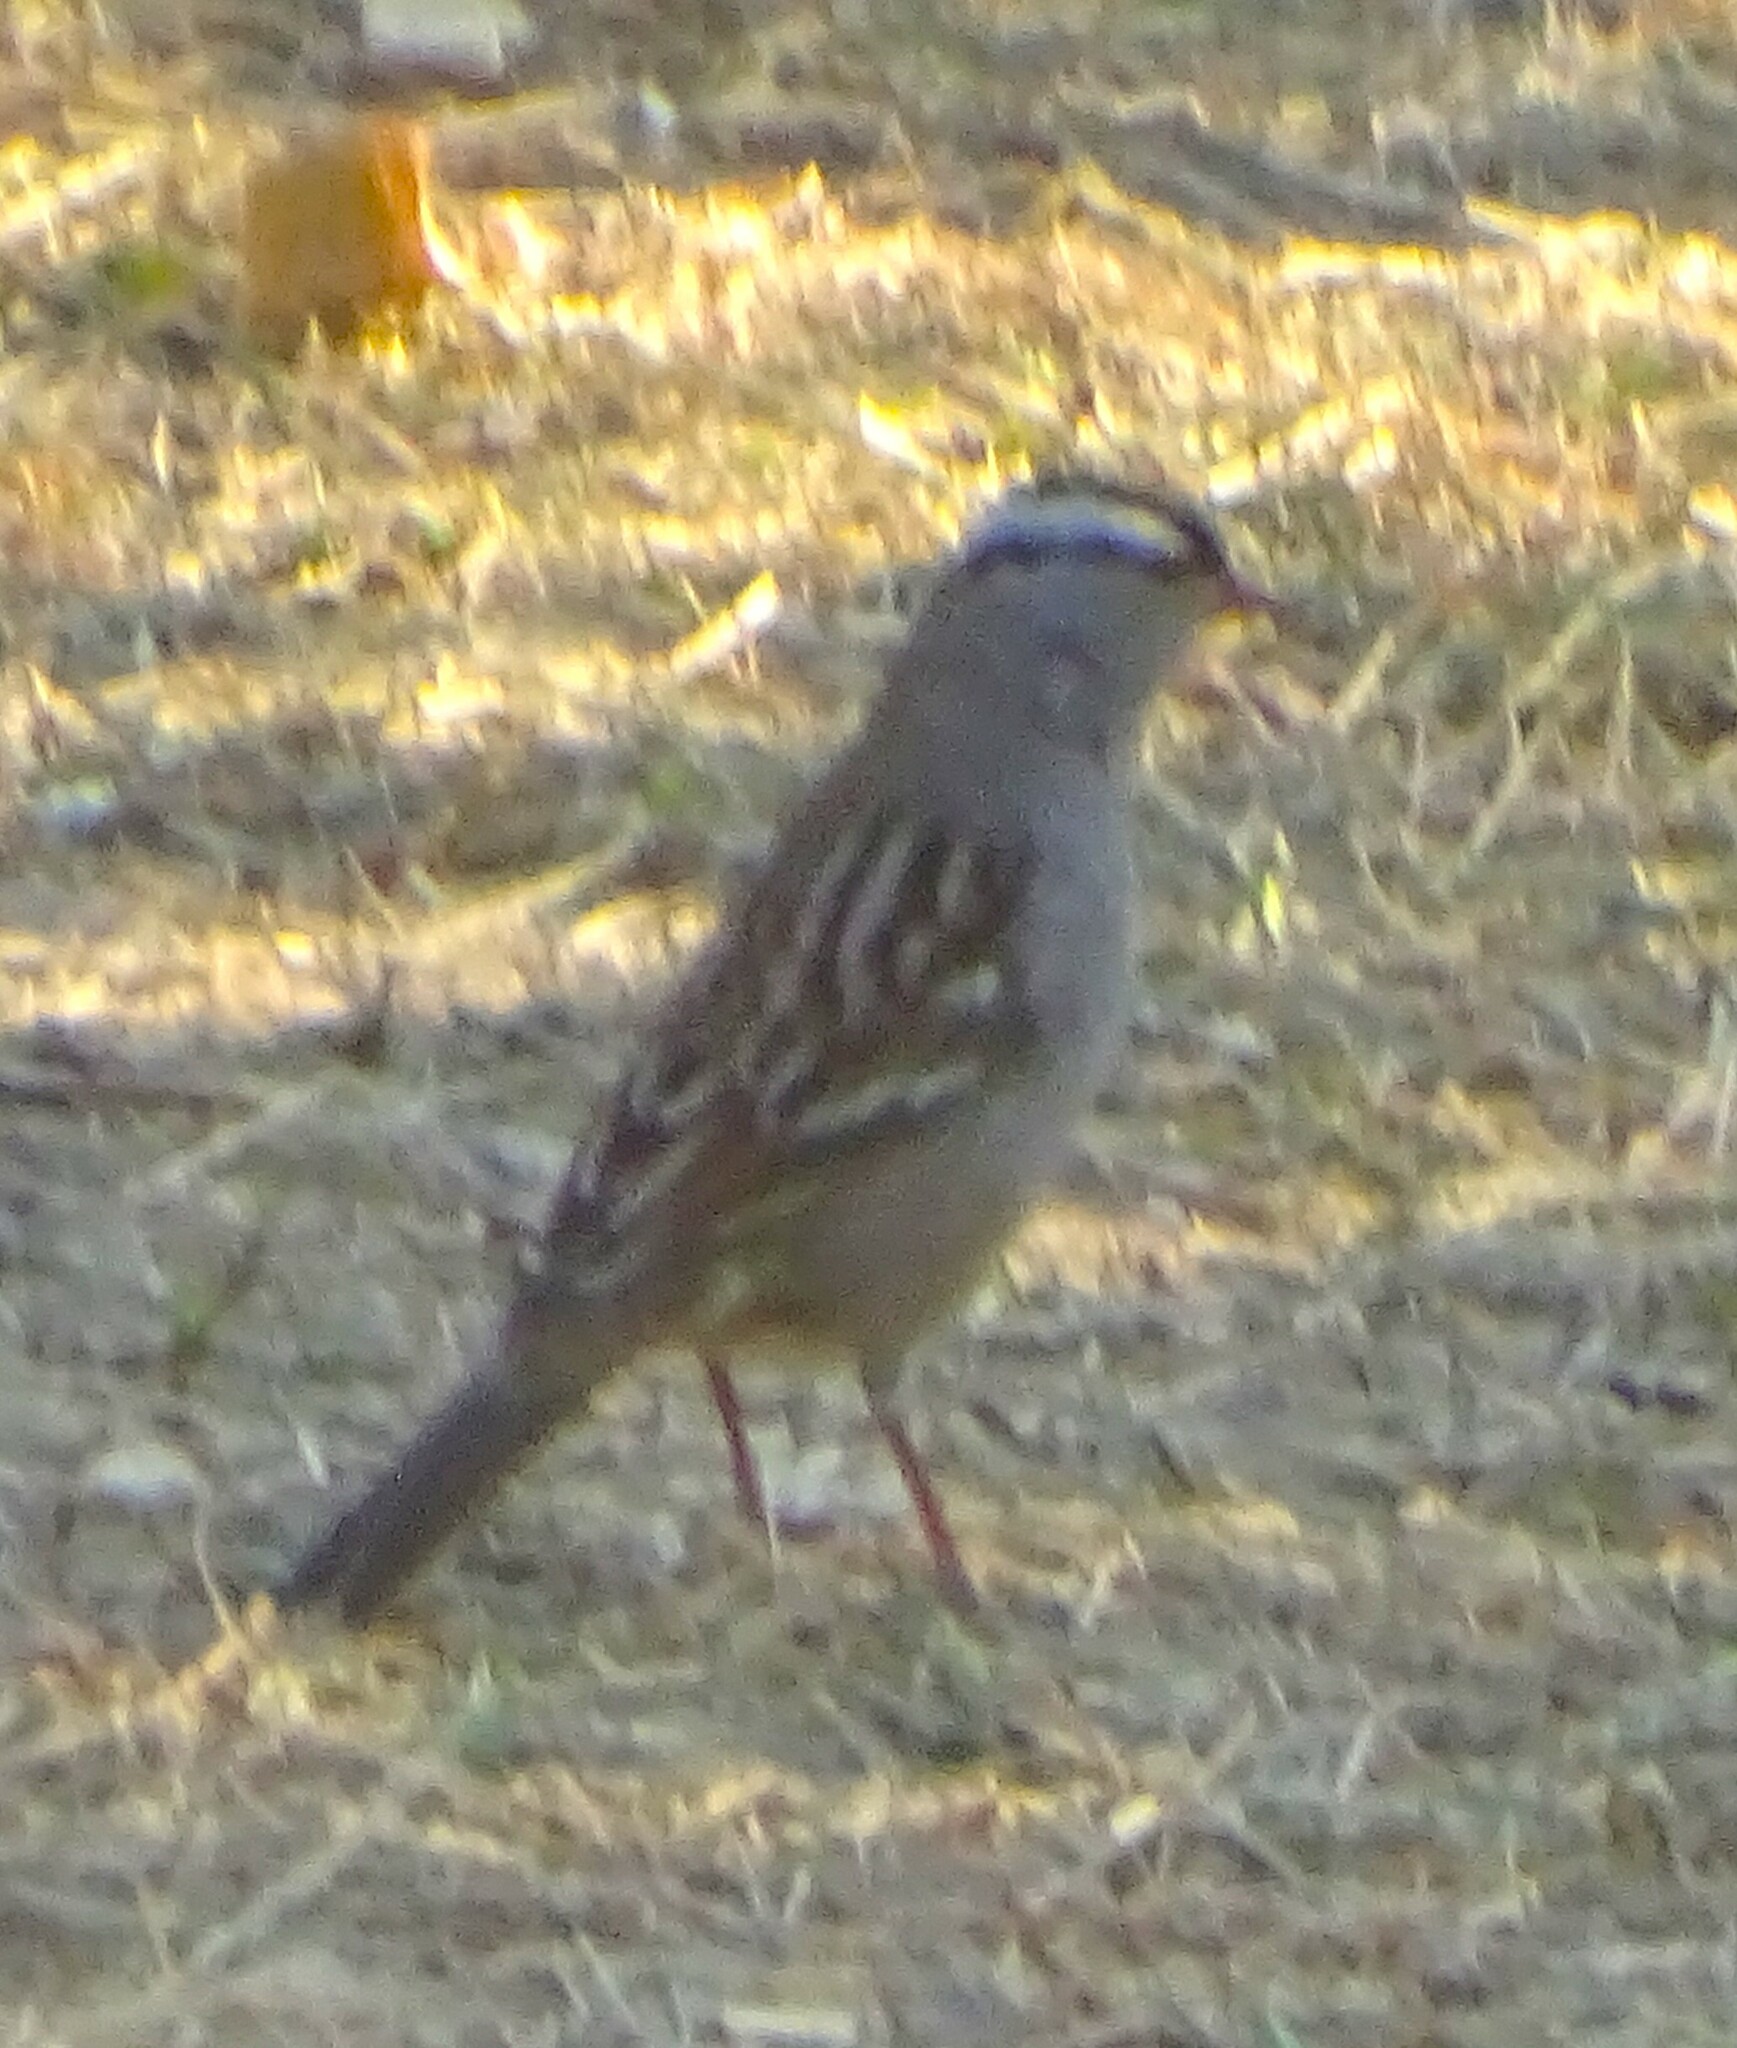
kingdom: Animalia
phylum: Chordata
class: Aves
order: Passeriformes
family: Passerellidae
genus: Zonotrichia
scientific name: Zonotrichia leucophrys
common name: White-crowned sparrow
